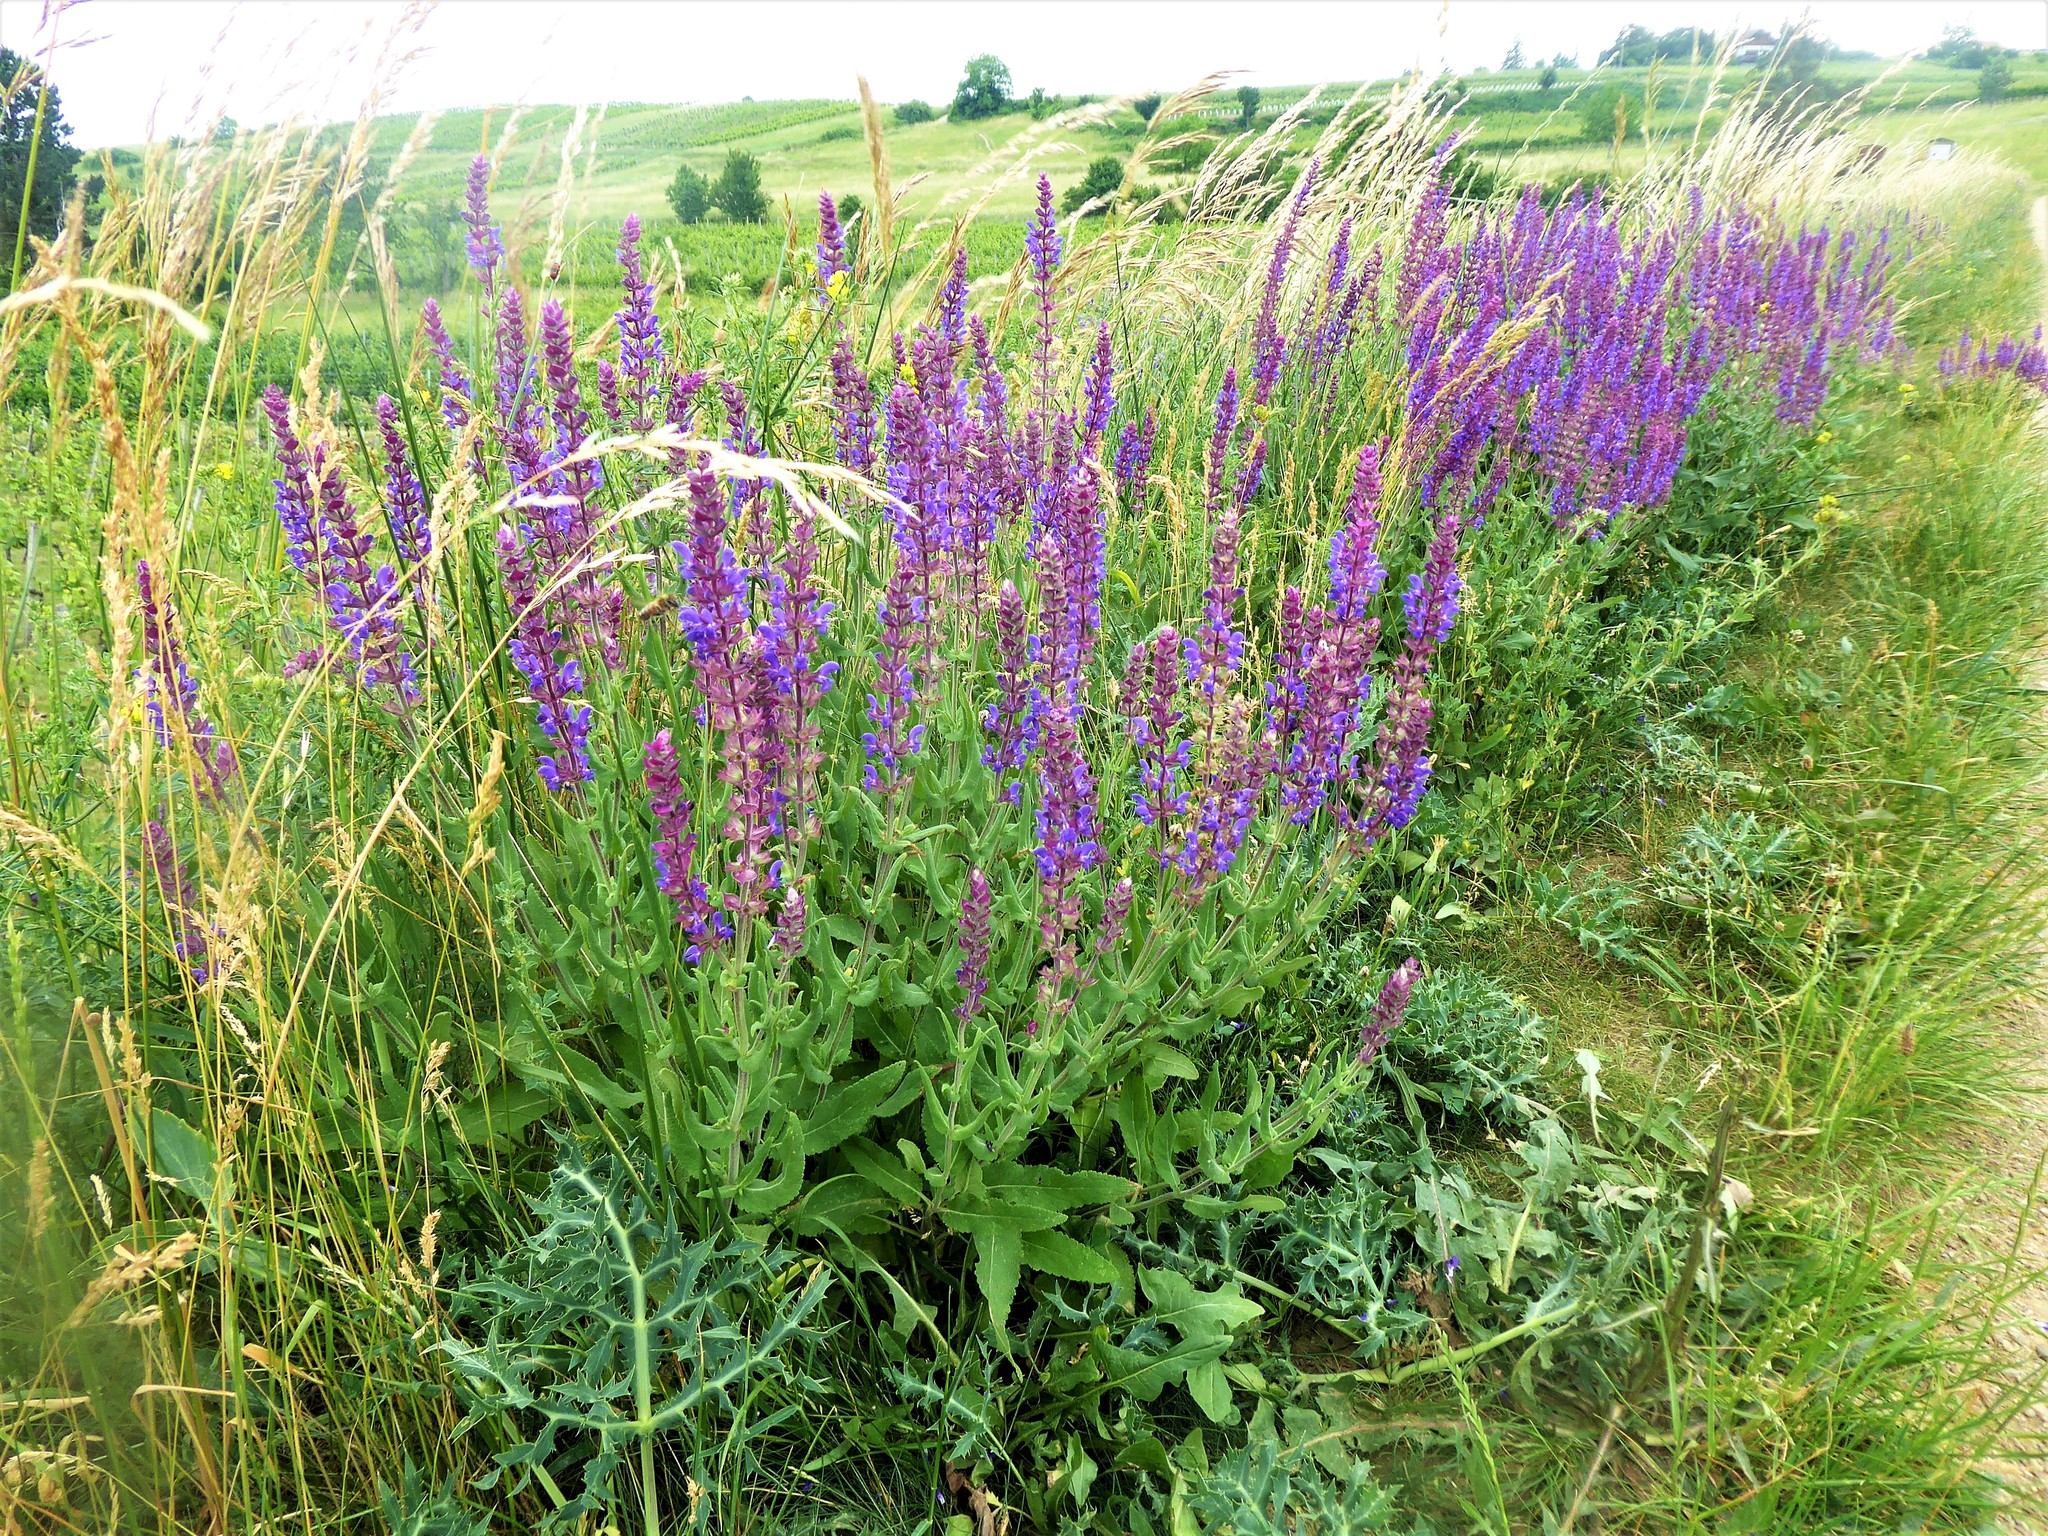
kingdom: Plantae
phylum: Tracheophyta
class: Magnoliopsida
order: Lamiales
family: Lamiaceae
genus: Salvia
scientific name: Salvia nemorosa
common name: Balkan clary
